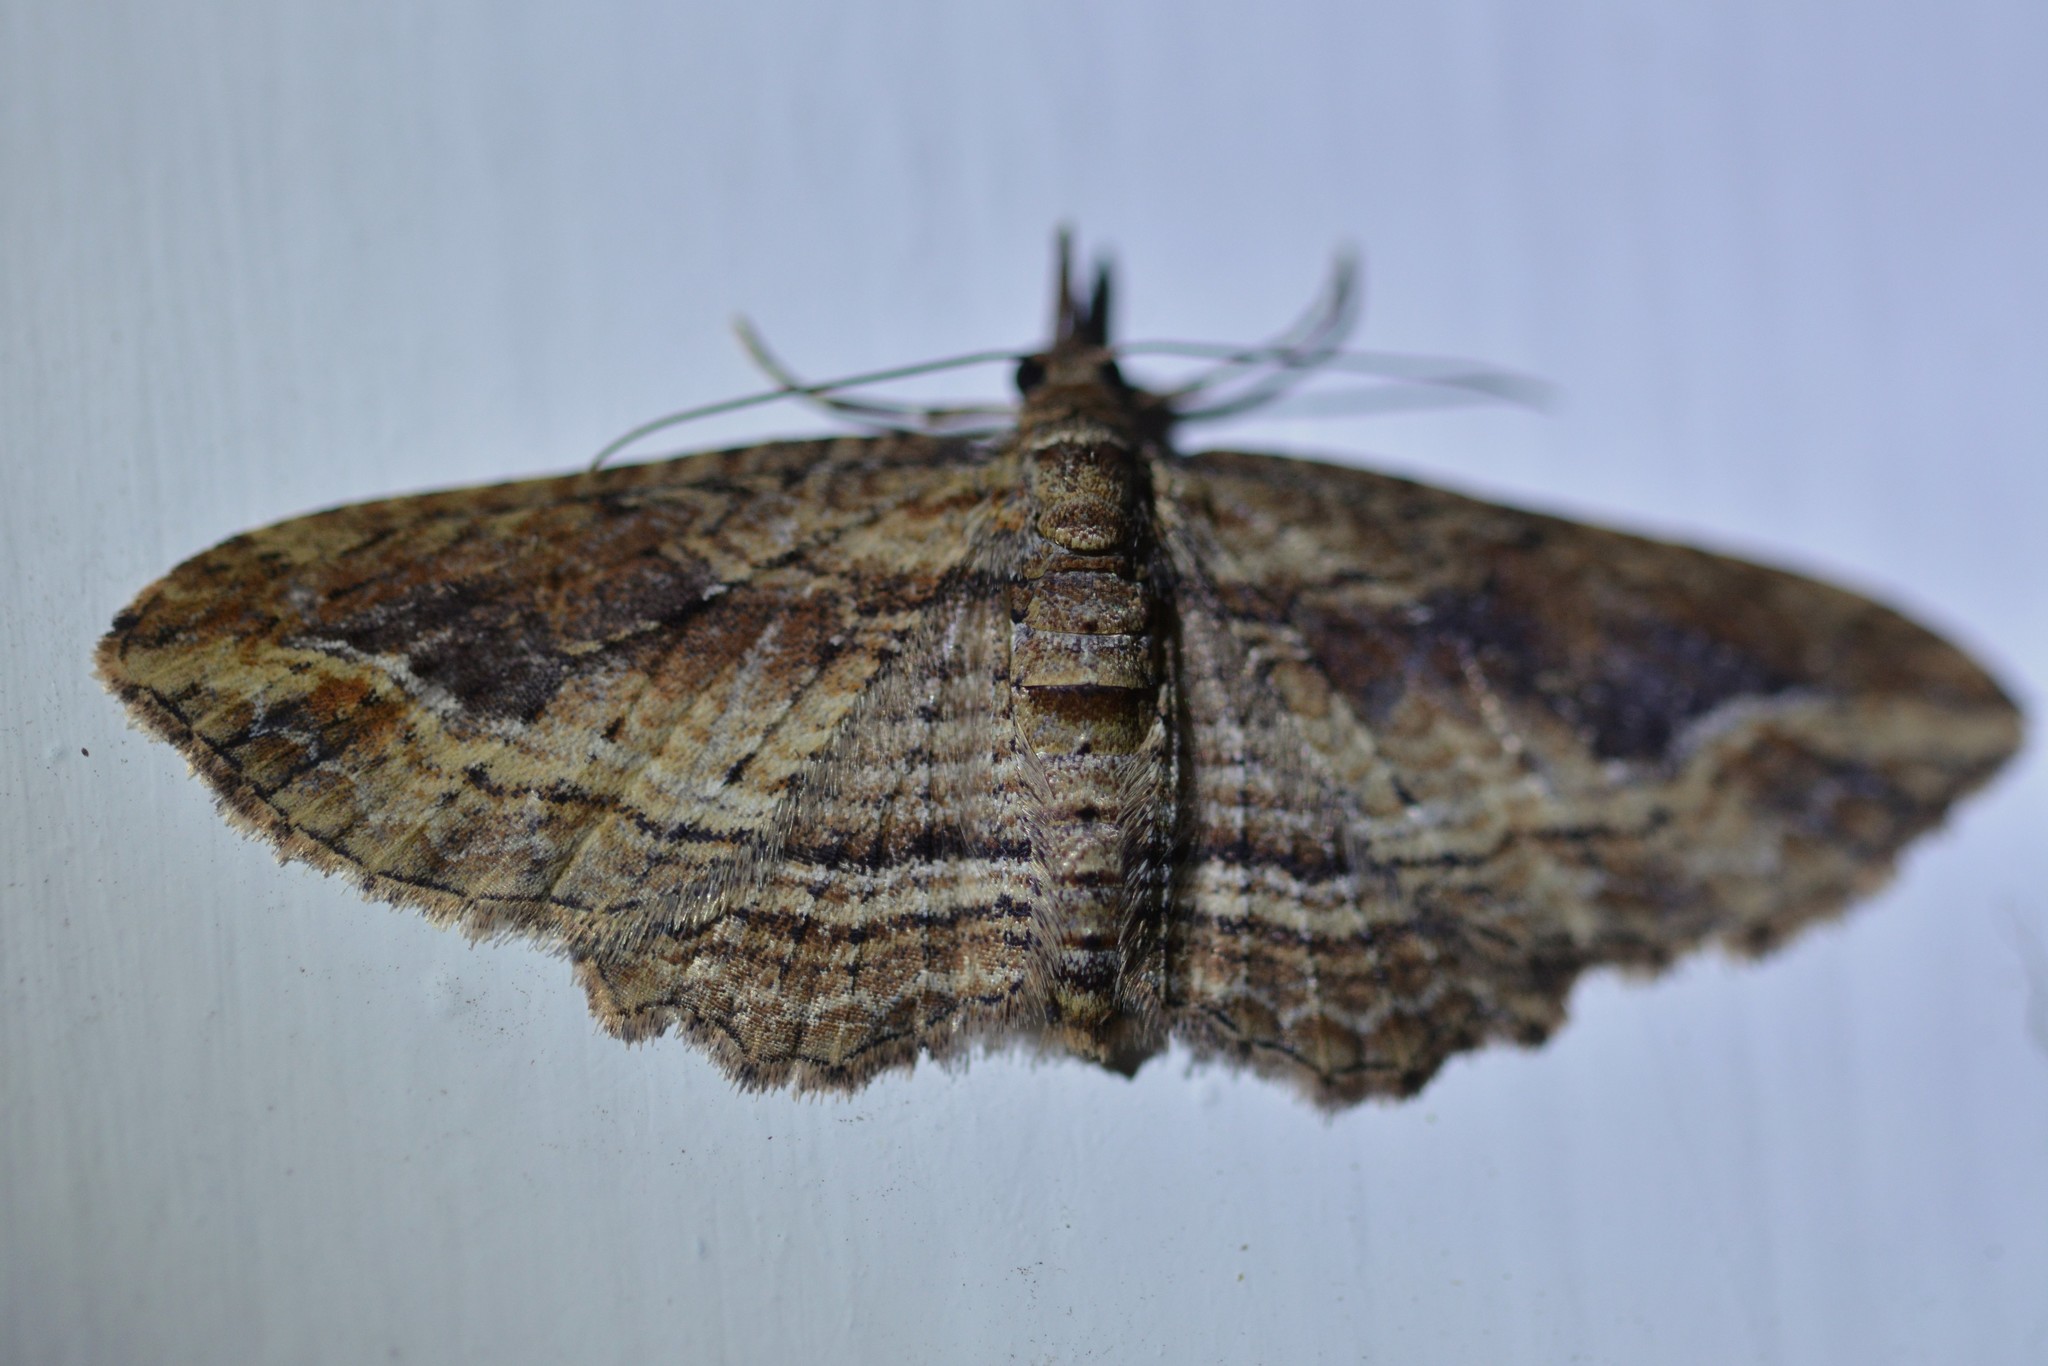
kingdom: Animalia
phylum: Arthropoda
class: Insecta
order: Lepidoptera
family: Geometridae
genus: Chloroclystis
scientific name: Chloroclystis filata
